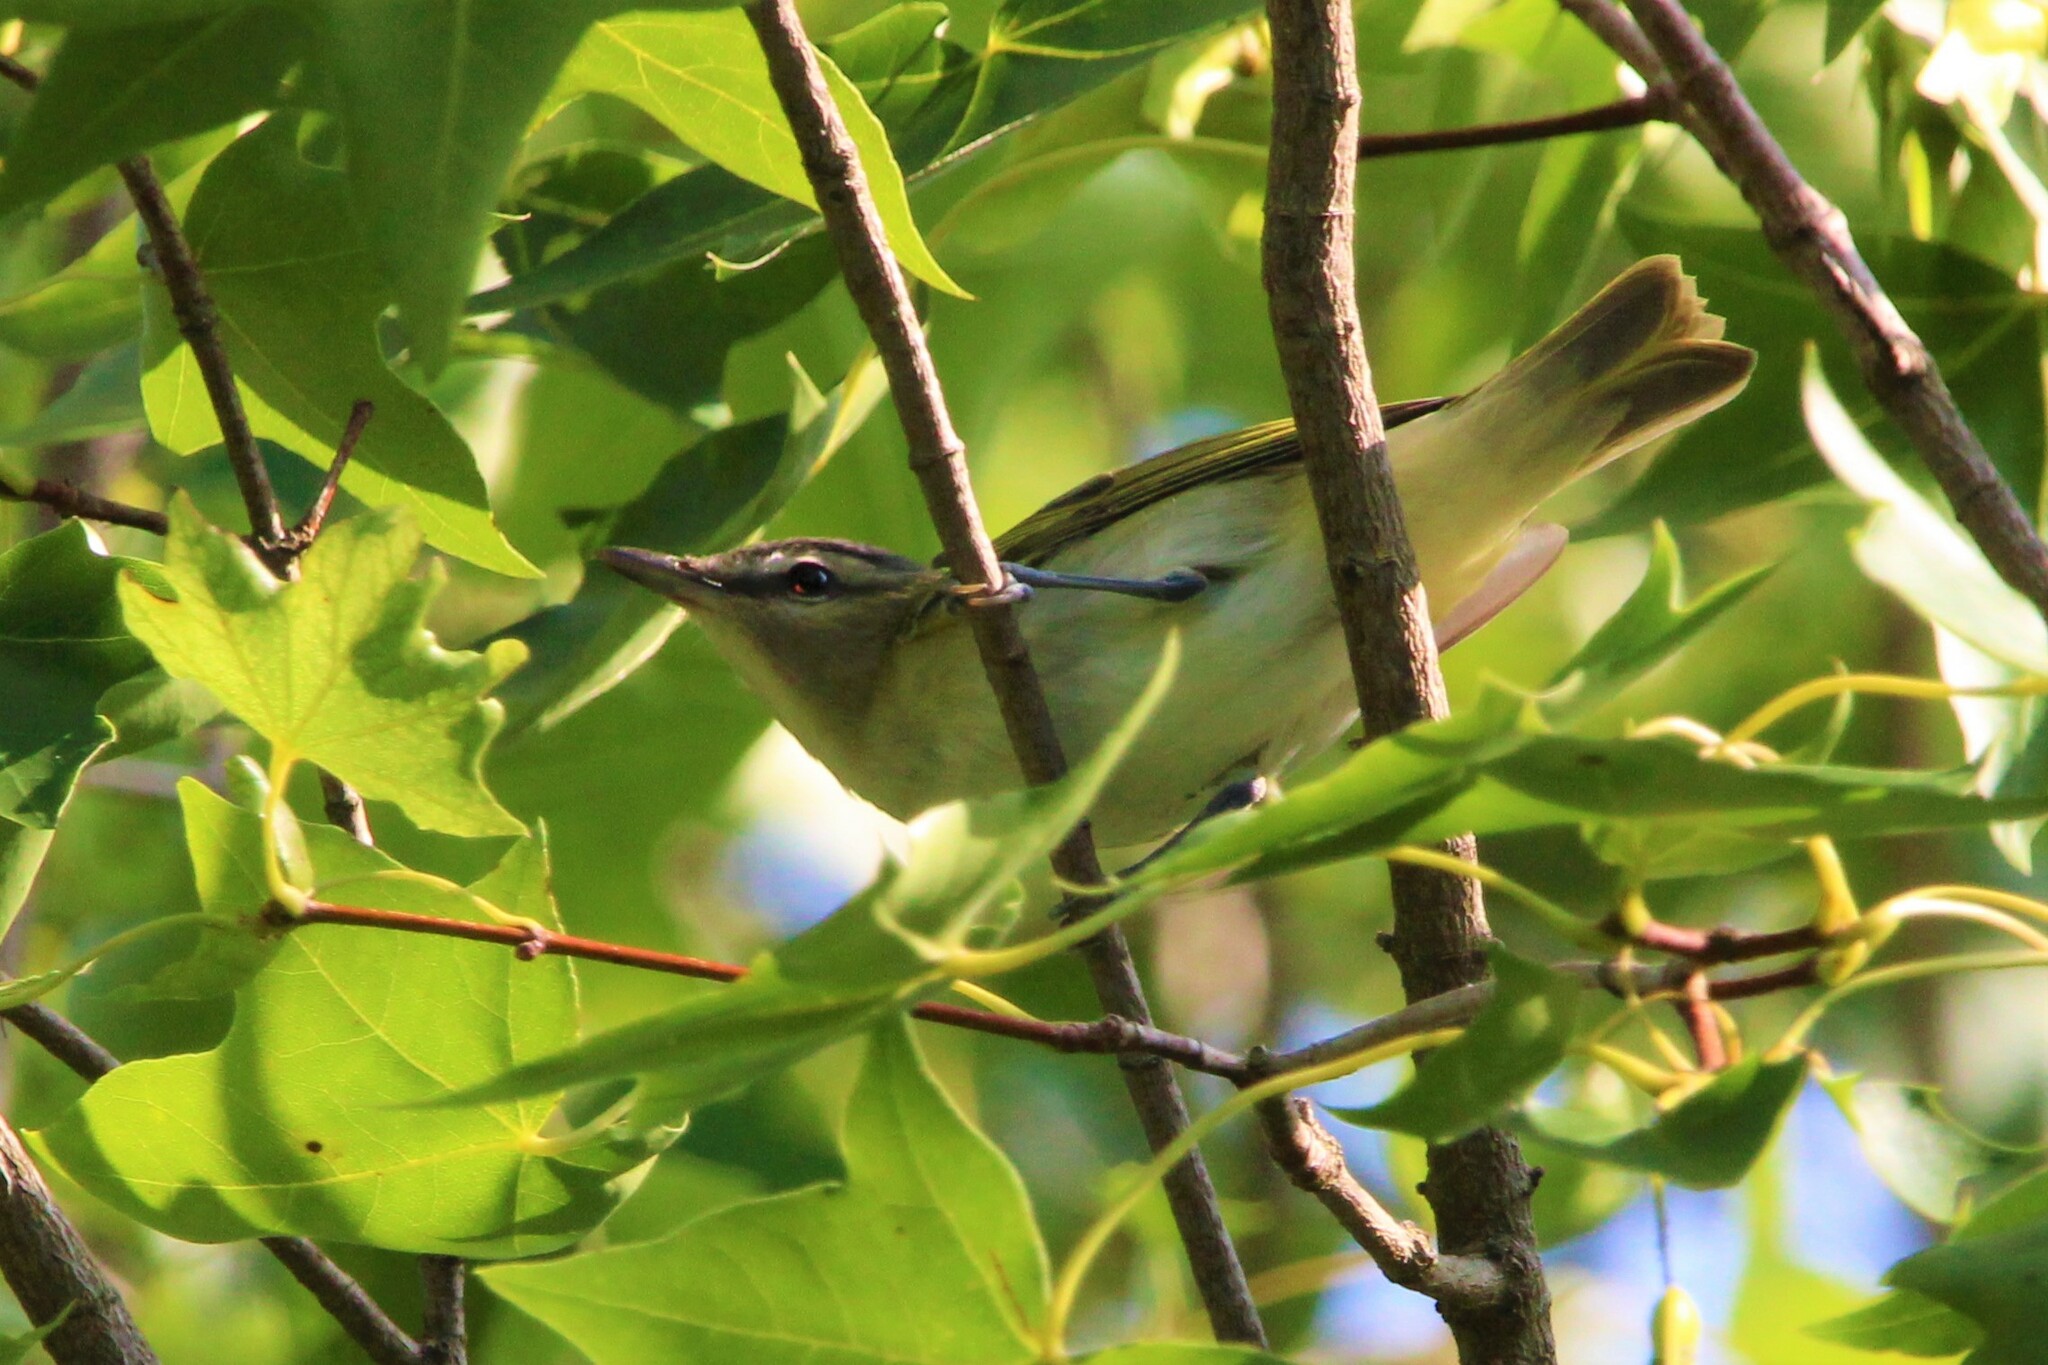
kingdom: Animalia
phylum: Chordata
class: Aves
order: Passeriformes
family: Vireonidae
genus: Vireo
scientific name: Vireo olivaceus
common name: Red-eyed vireo
